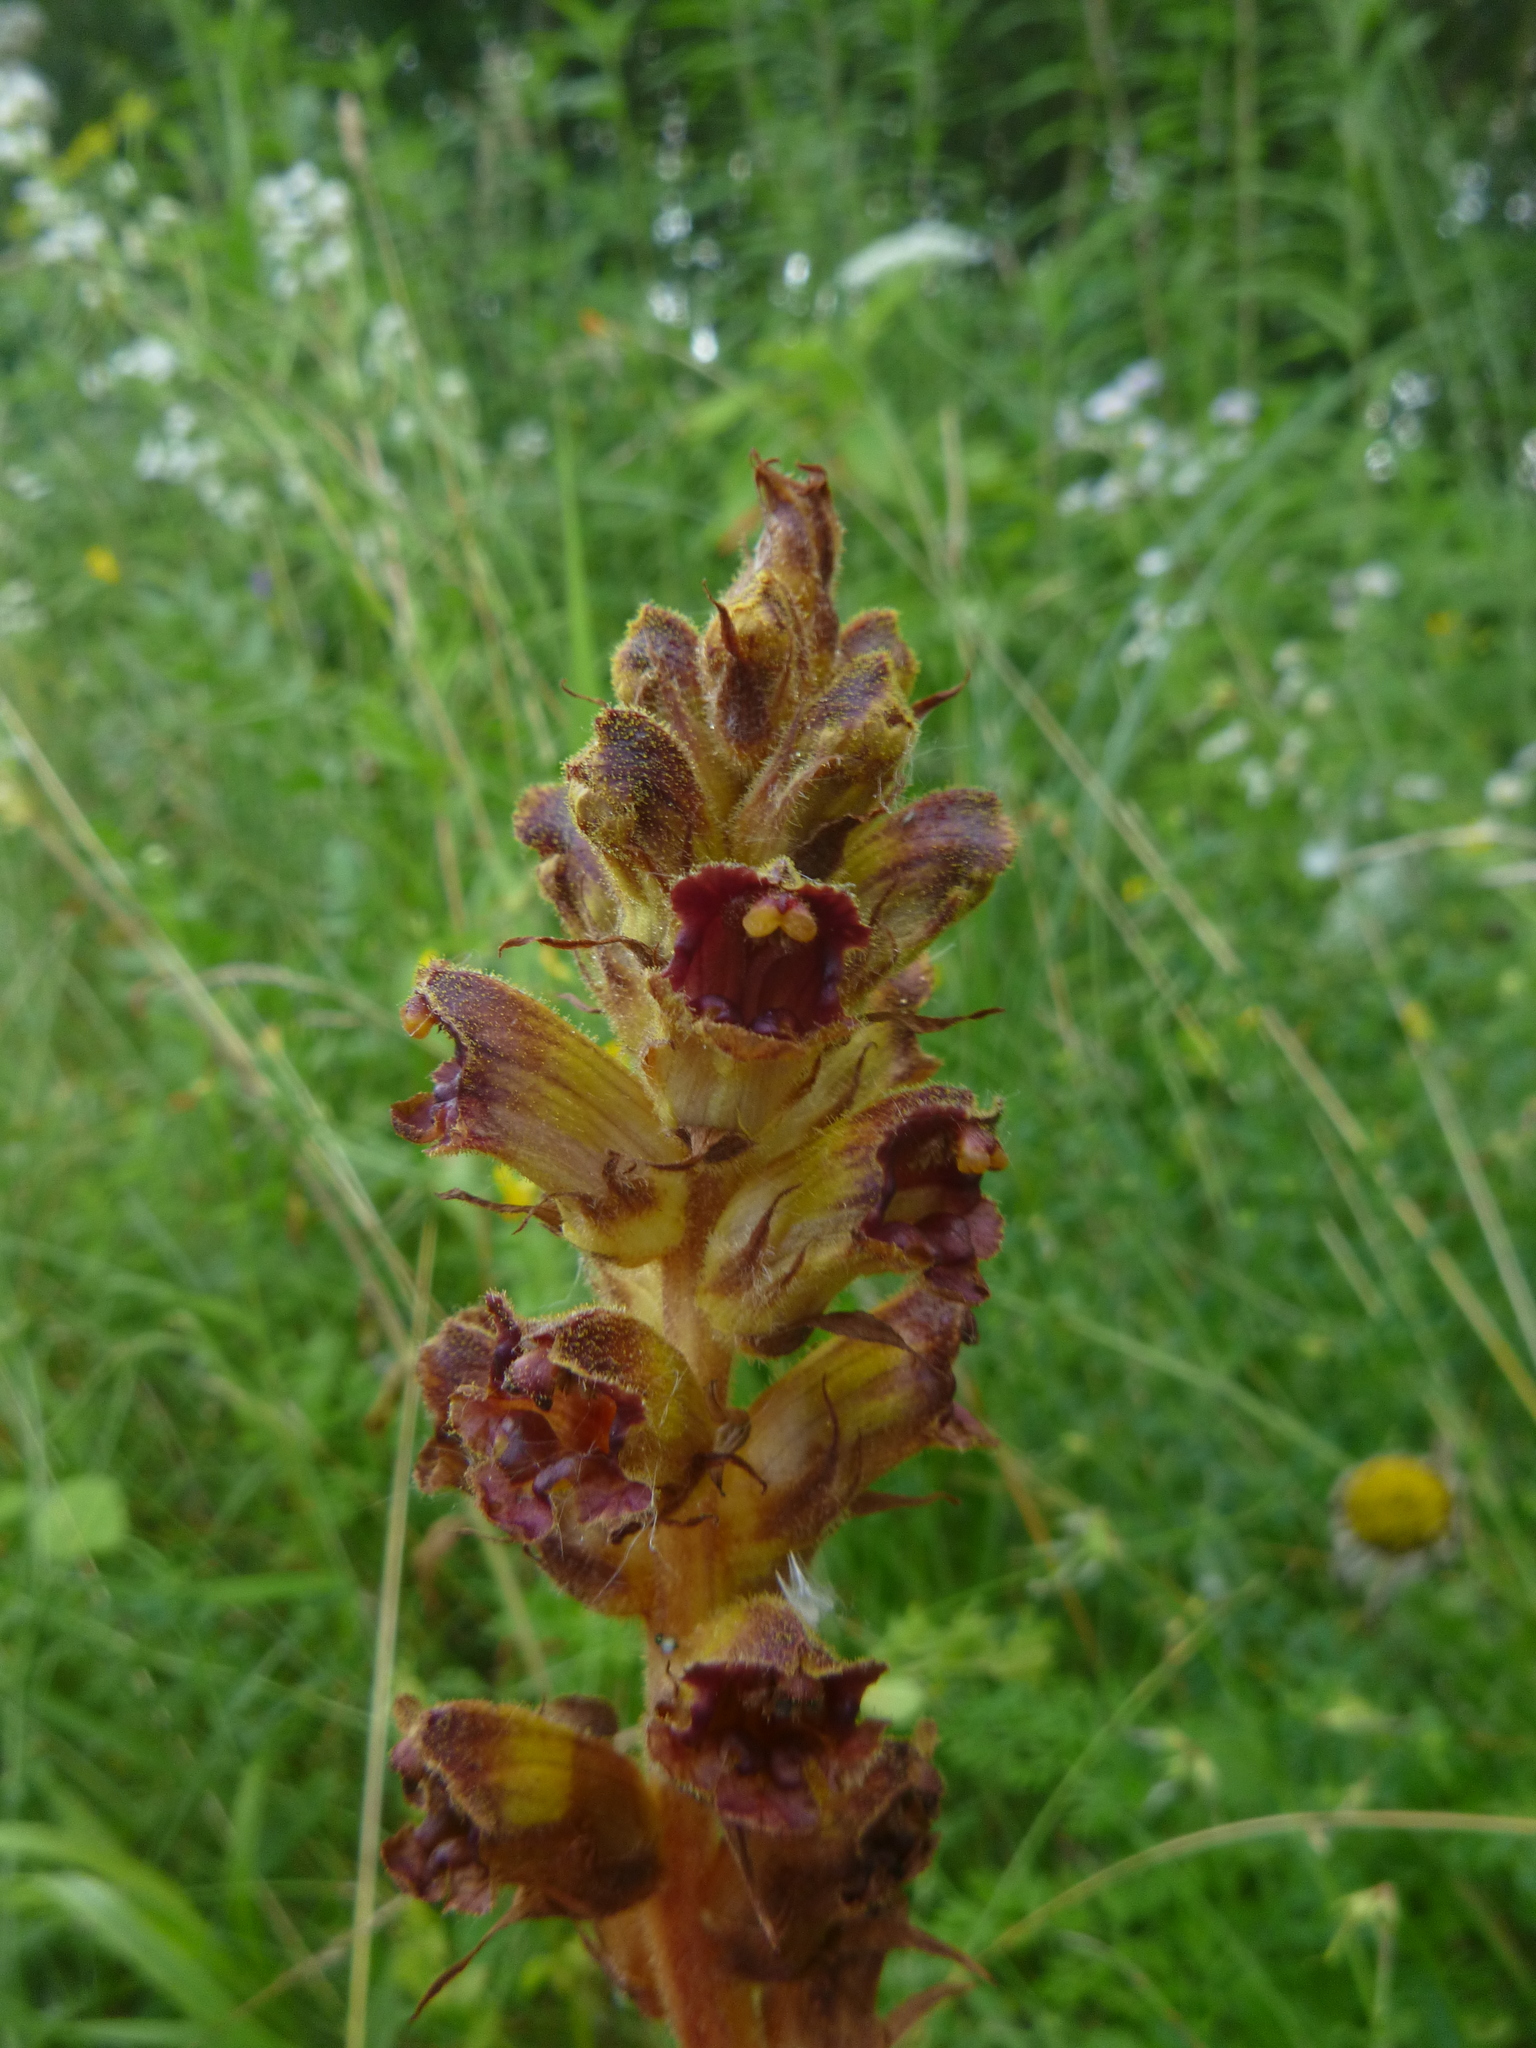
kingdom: Plantae
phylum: Tracheophyta
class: Magnoliopsida
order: Lamiales
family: Orobanchaceae
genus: Orobanche
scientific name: Orobanche gracilis
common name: Slender broomrape
